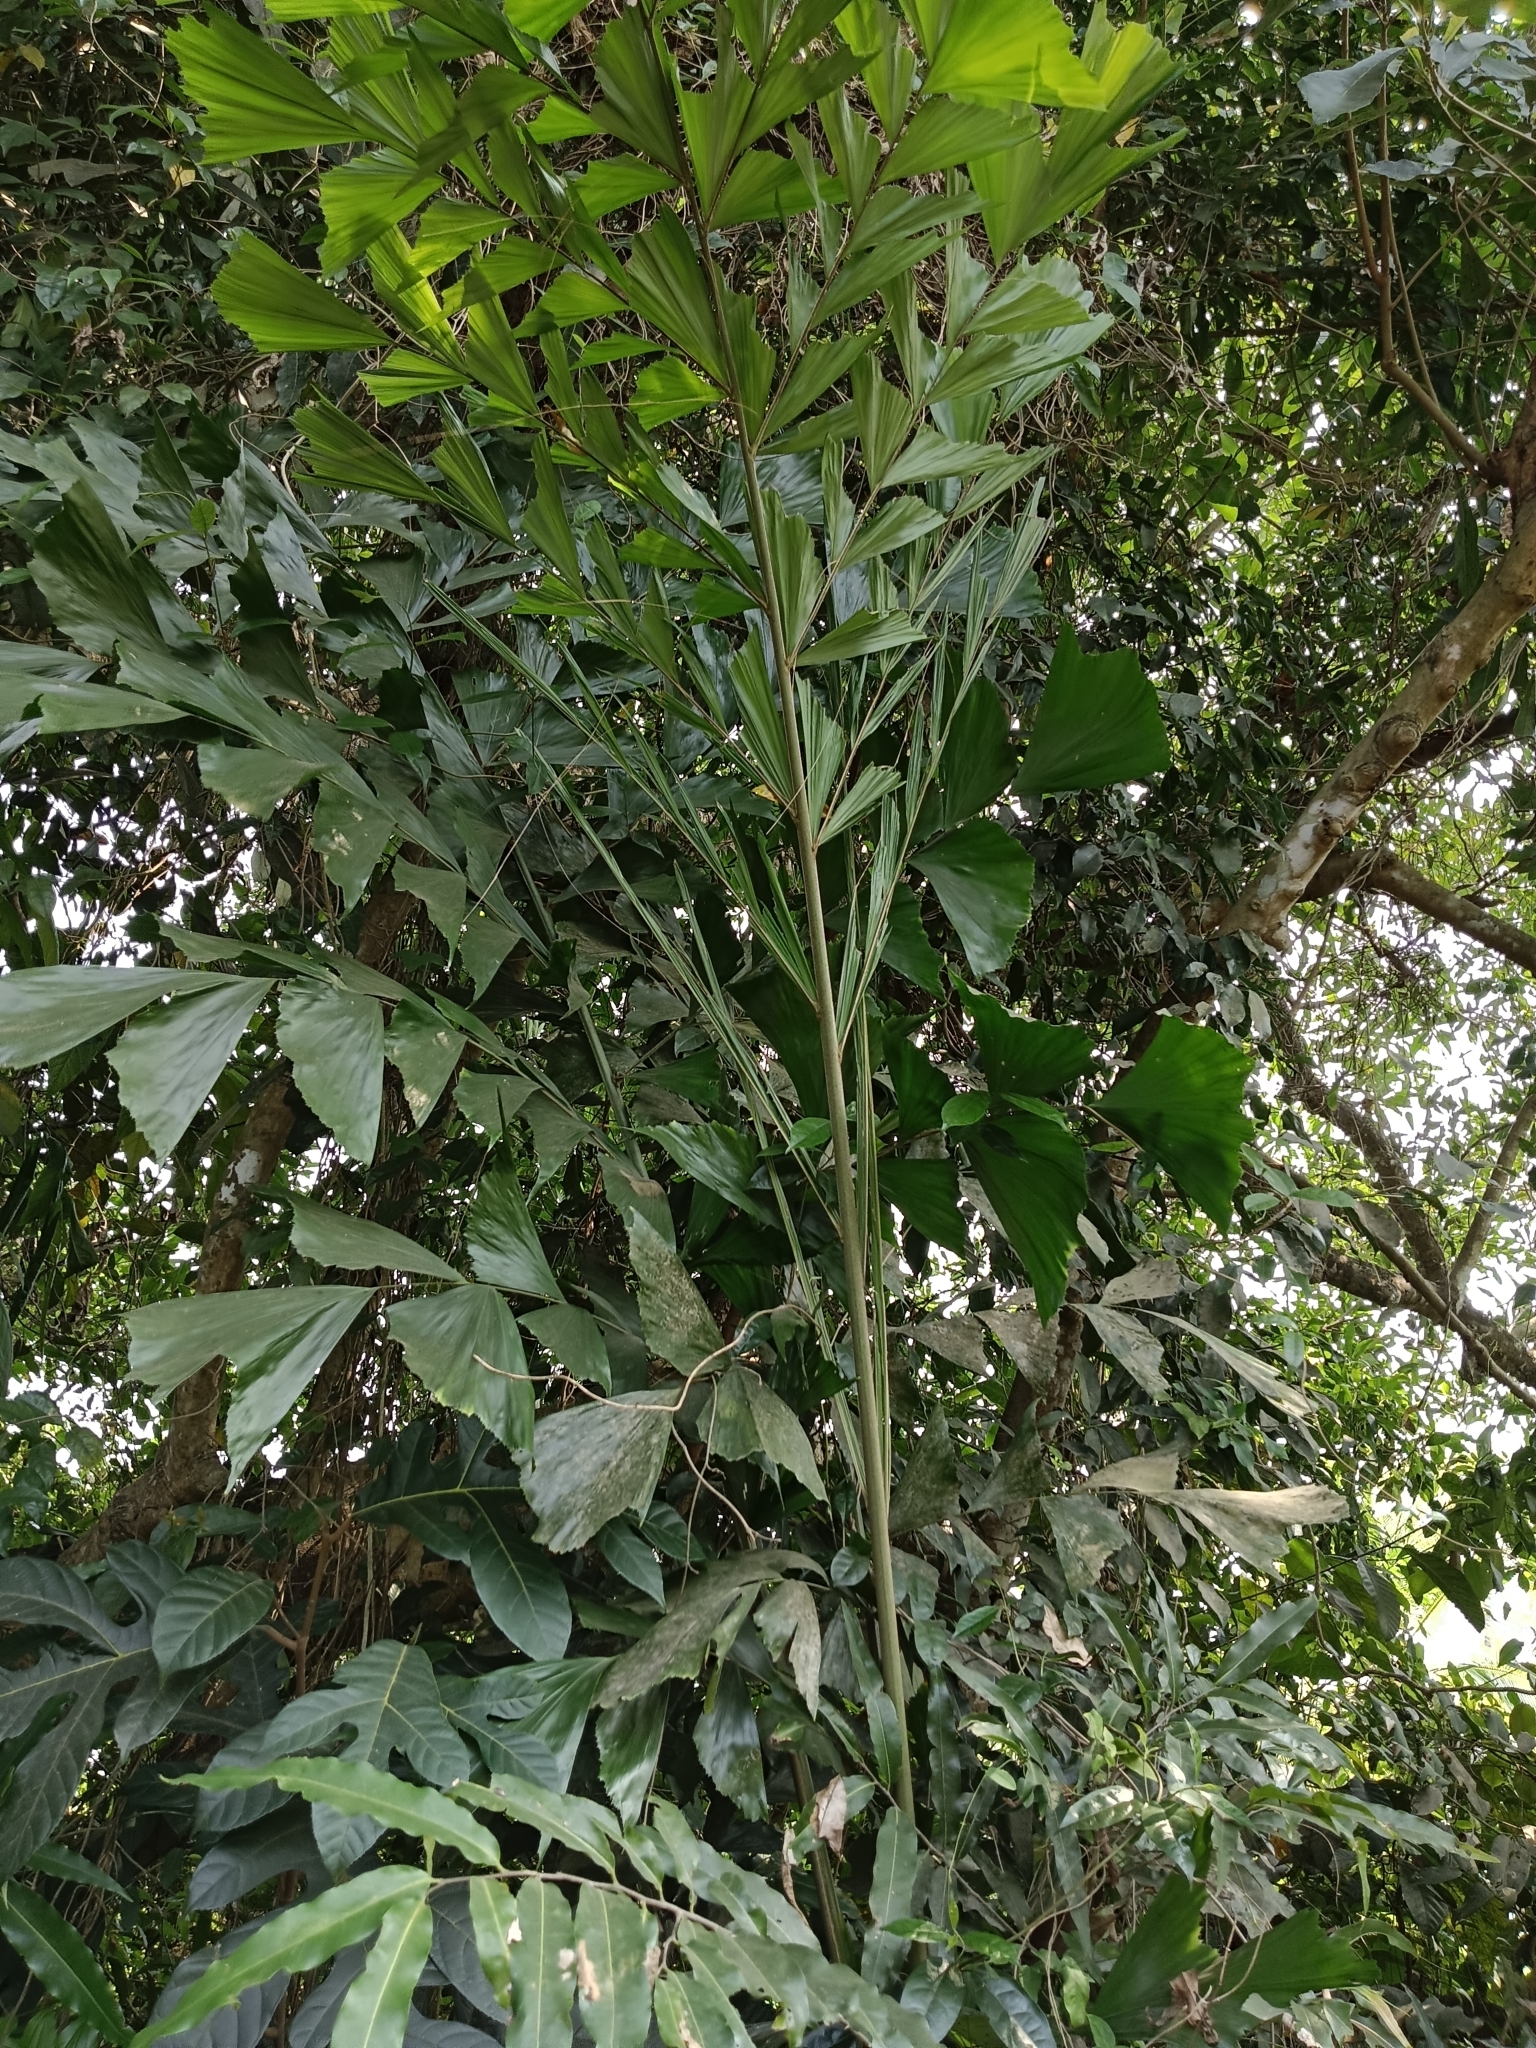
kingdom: Plantae
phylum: Tracheophyta
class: Liliopsida
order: Arecales
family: Arecaceae
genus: Caryota
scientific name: Caryota urens
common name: Jaggery palm
